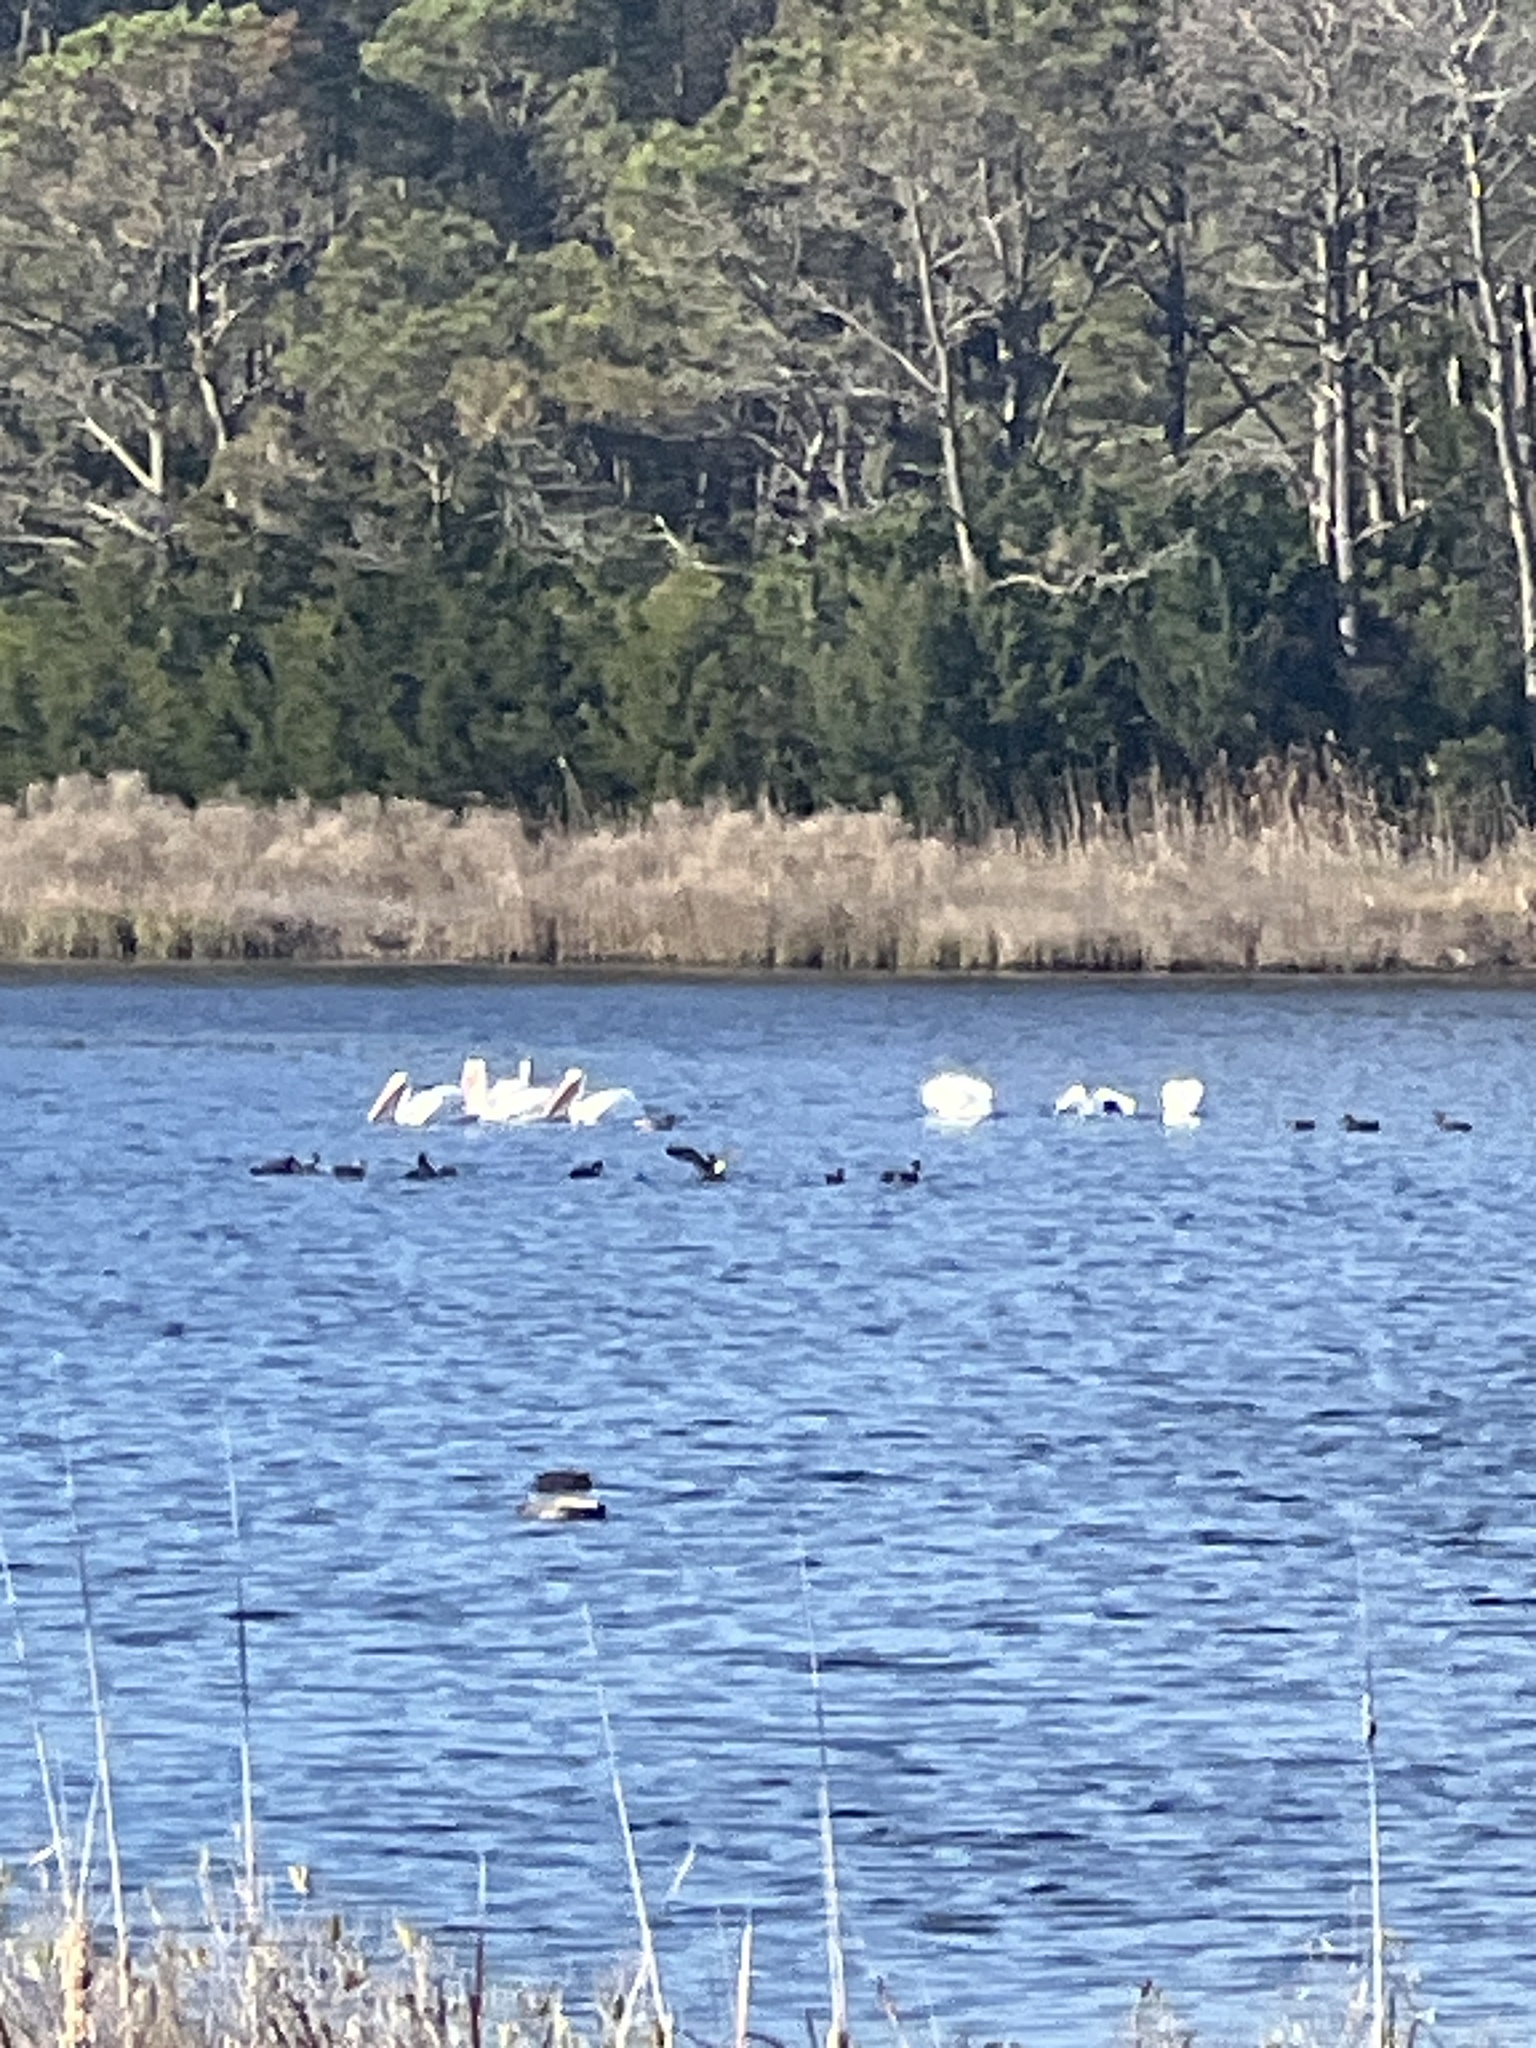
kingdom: Animalia
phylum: Chordata
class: Aves
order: Pelecaniformes
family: Pelecanidae
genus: Pelecanus
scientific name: Pelecanus erythrorhynchos
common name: American white pelican
